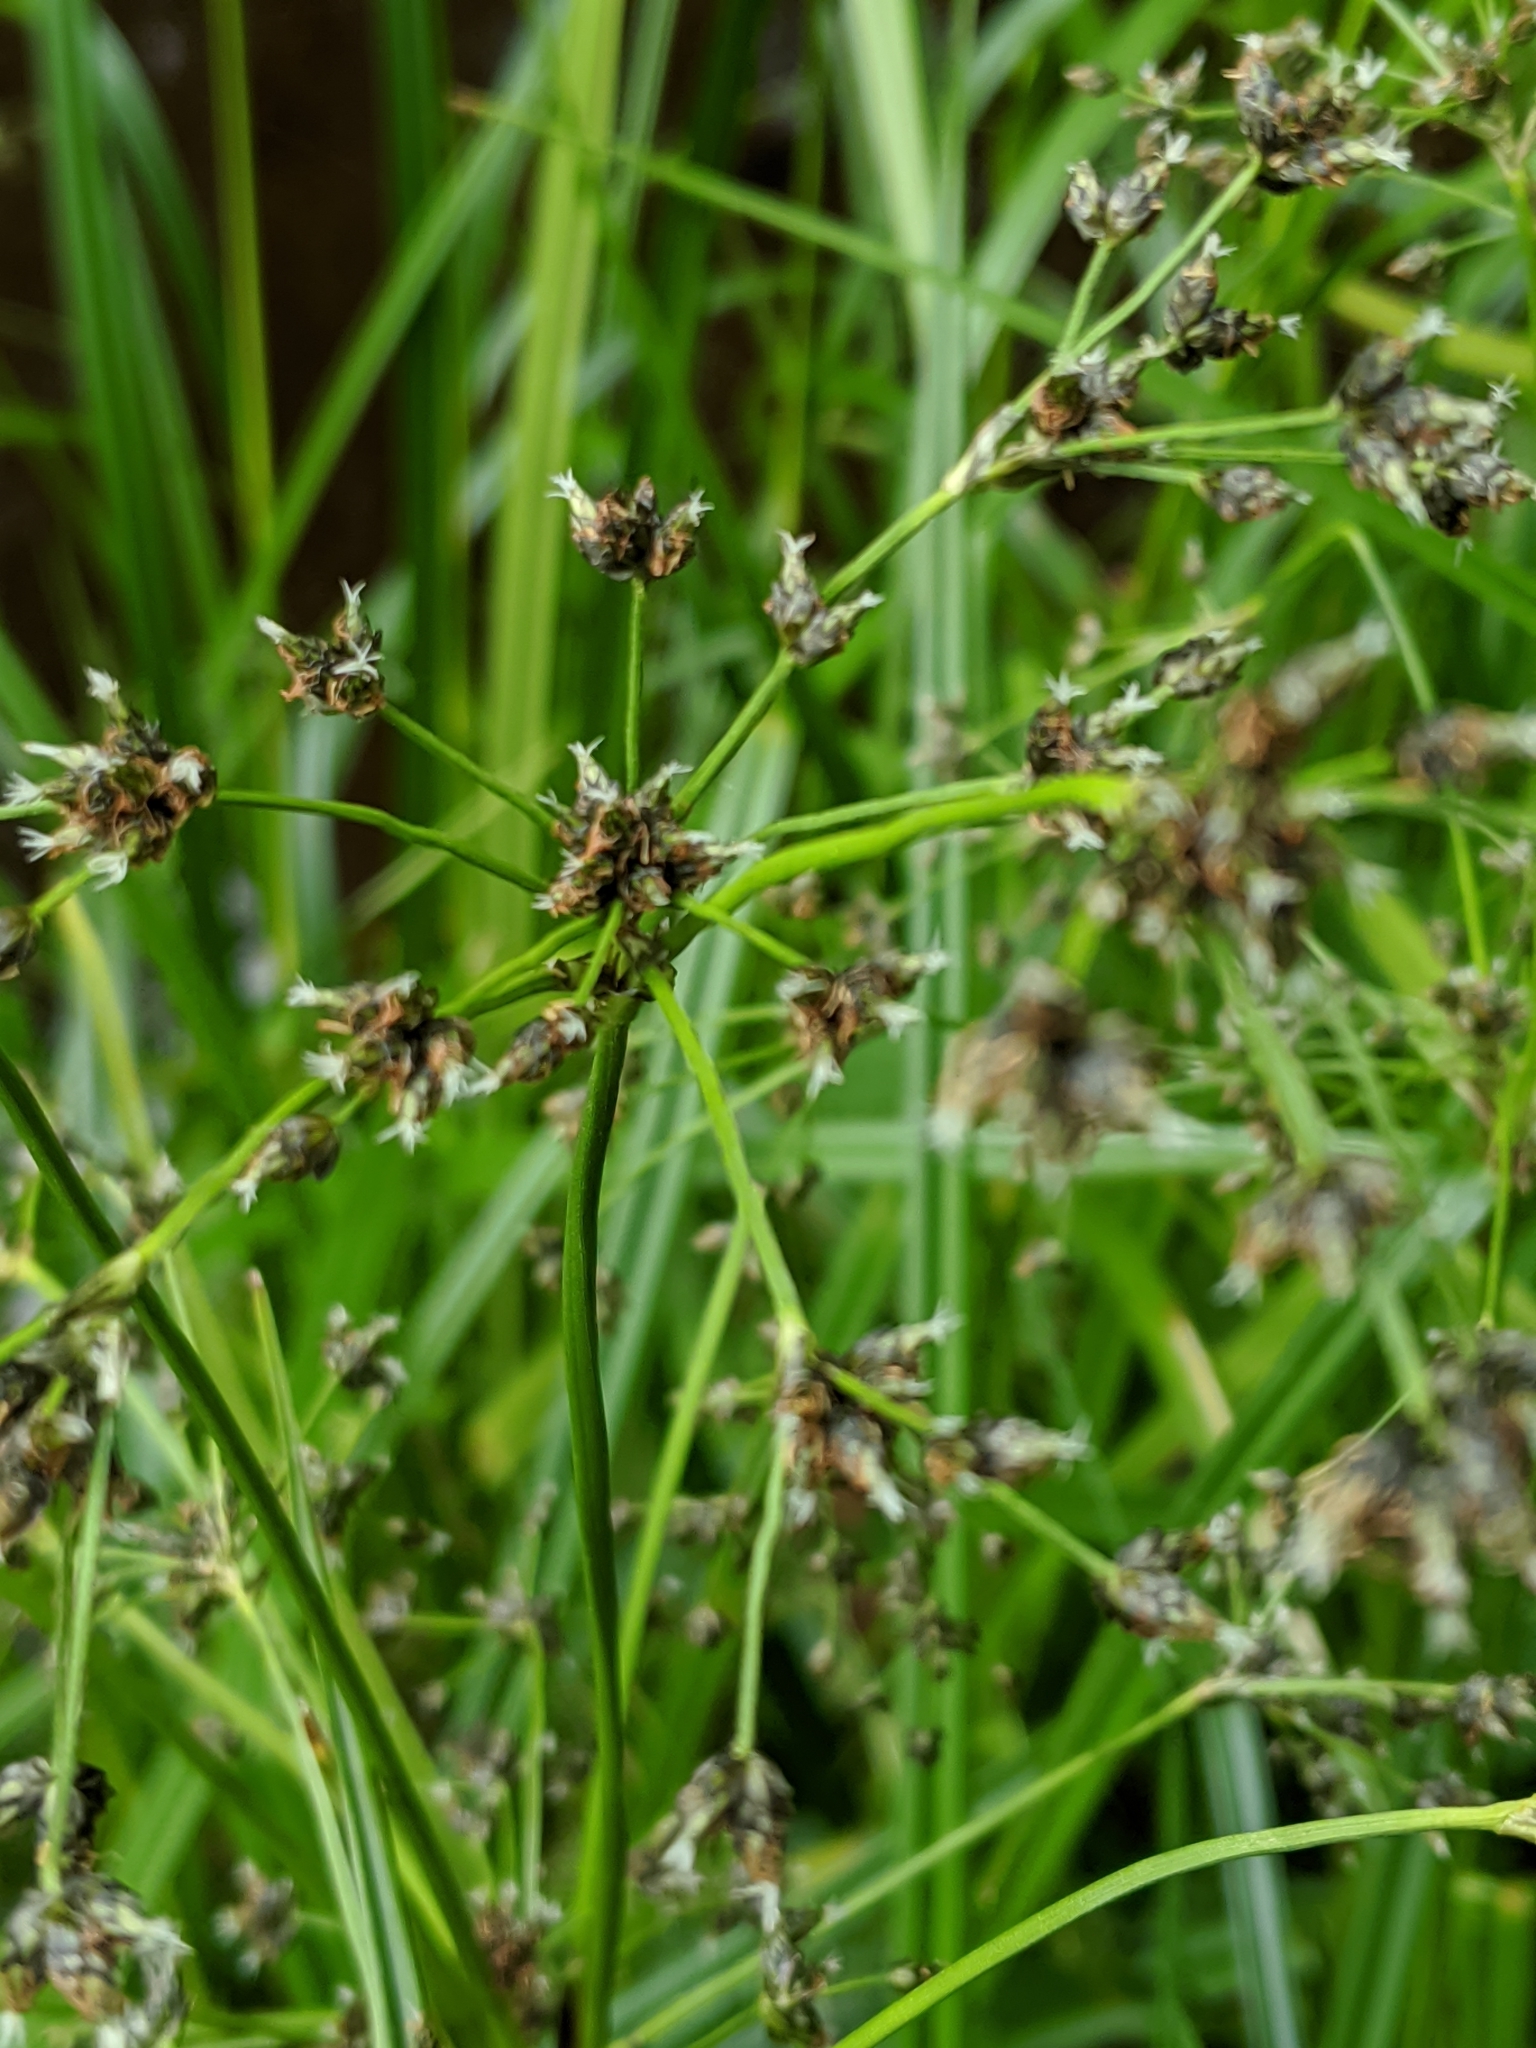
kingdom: Plantae
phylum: Tracheophyta
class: Liliopsida
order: Poales
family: Cyperaceae
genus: Scirpus
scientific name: Scirpus microcarpus
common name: Panicled bulrush
